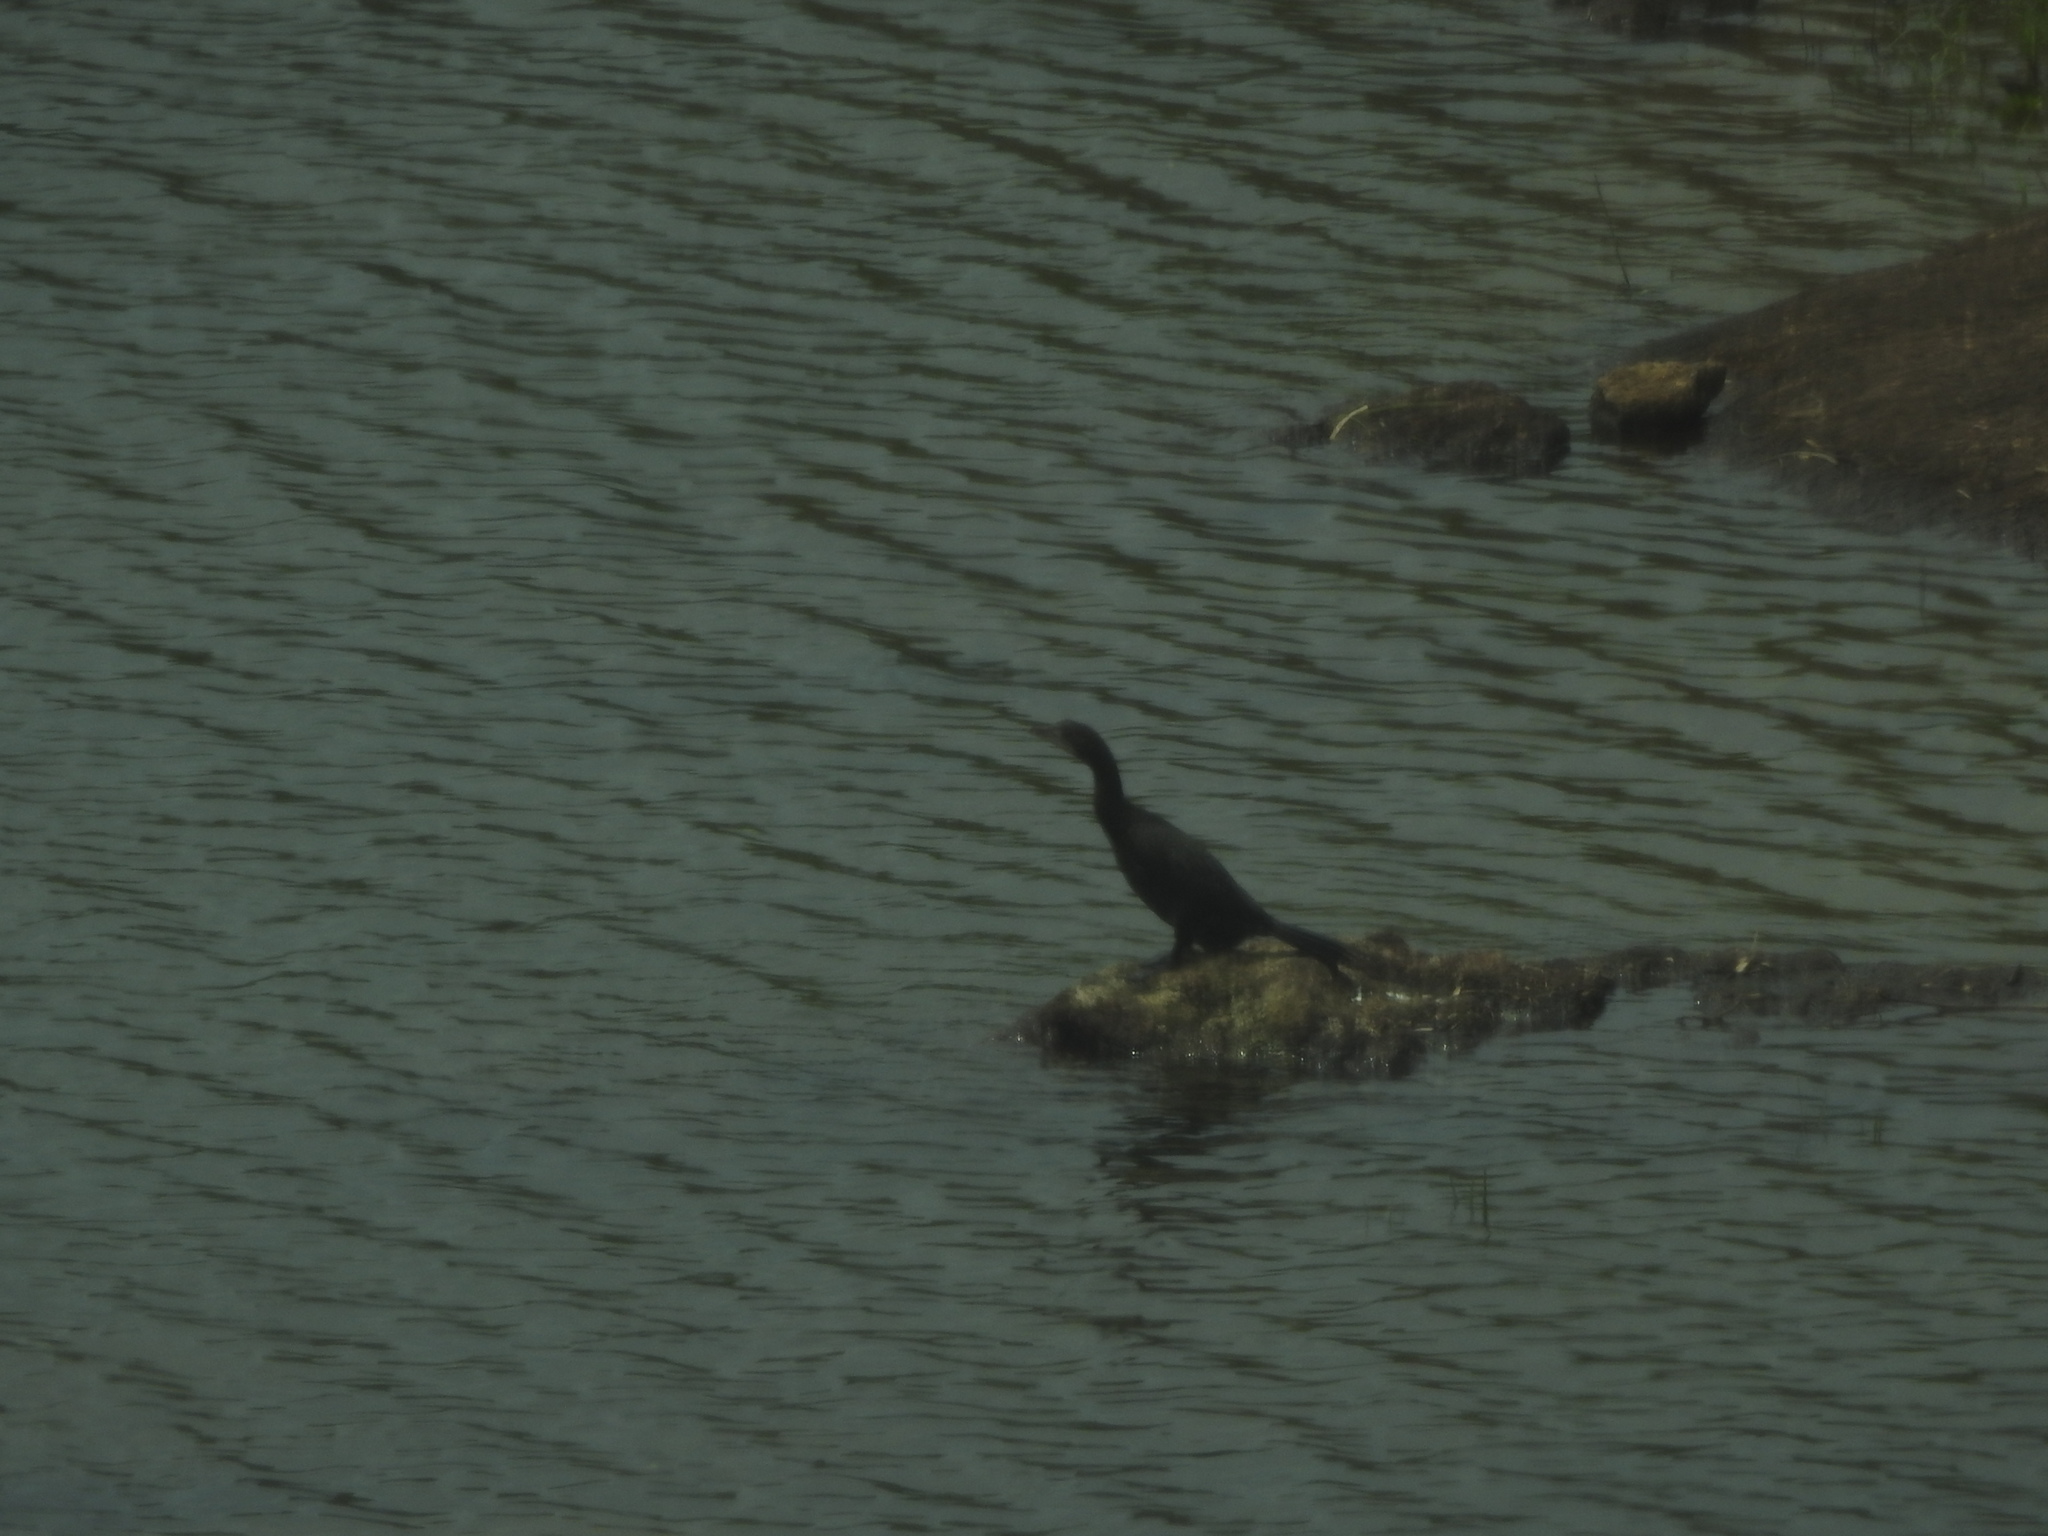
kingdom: Animalia
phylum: Chordata
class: Aves
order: Suliformes
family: Phalacrocoracidae
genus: Microcarbo
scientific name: Microcarbo niger
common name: Little cormorant
